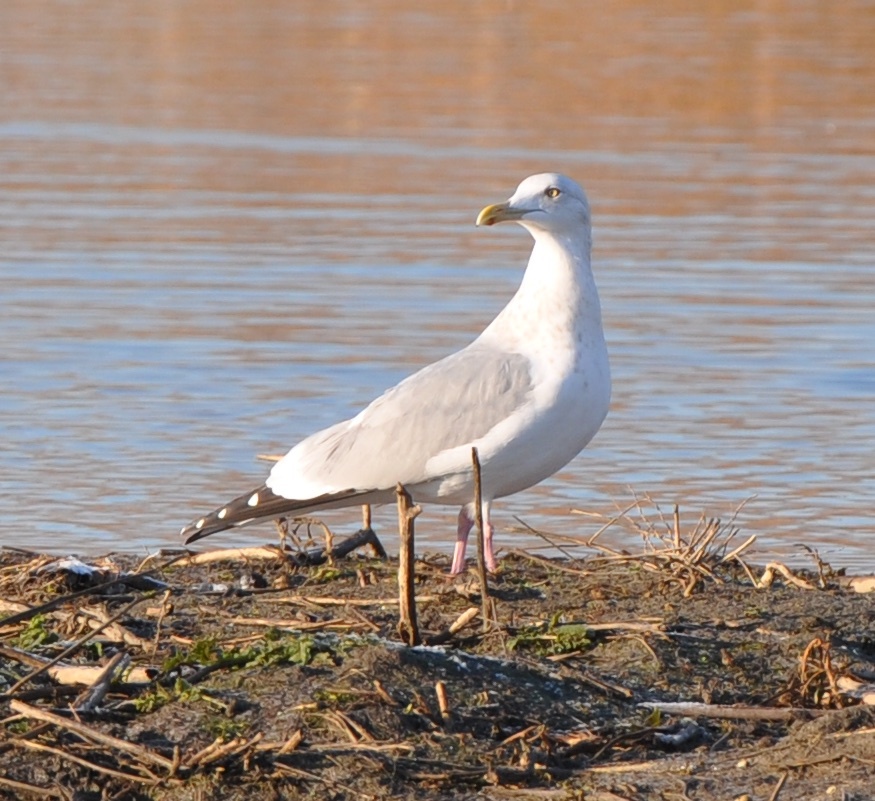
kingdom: Animalia
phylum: Chordata
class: Aves
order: Charadriiformes
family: Laridae
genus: Larus
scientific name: Larus argentatus
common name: Herring gull
